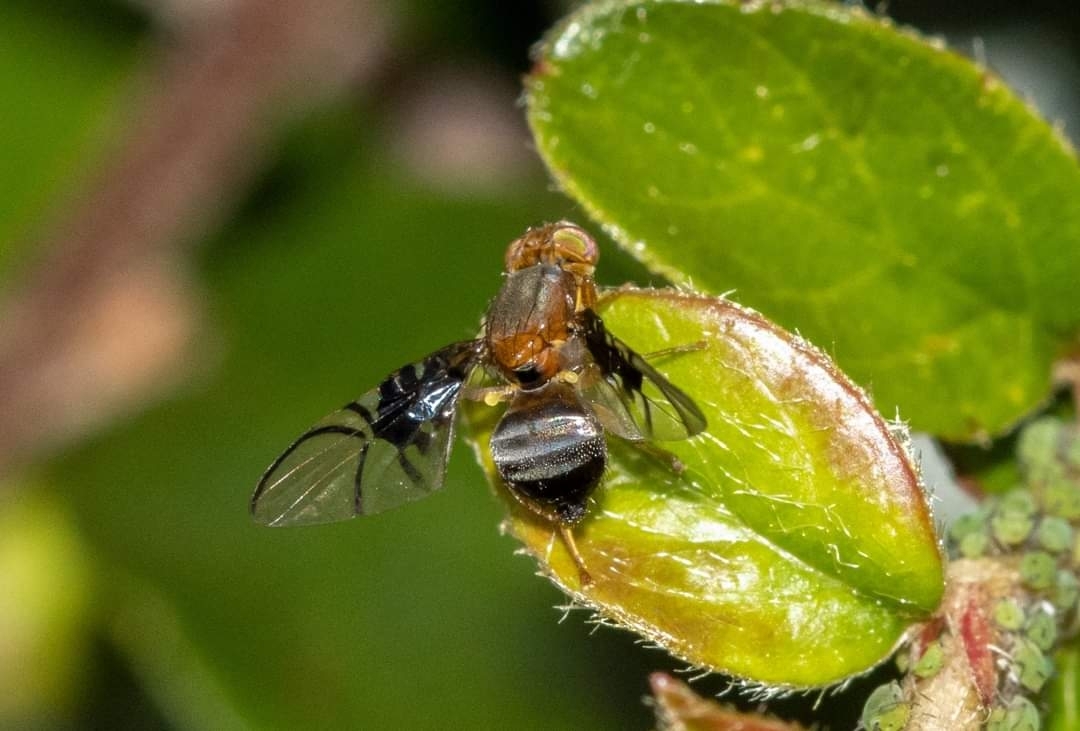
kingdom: Animalia
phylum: Arthropoda
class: Insecta
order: Diptera
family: Tephritidae
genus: Anomoia
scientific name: Anomoia purmunda
